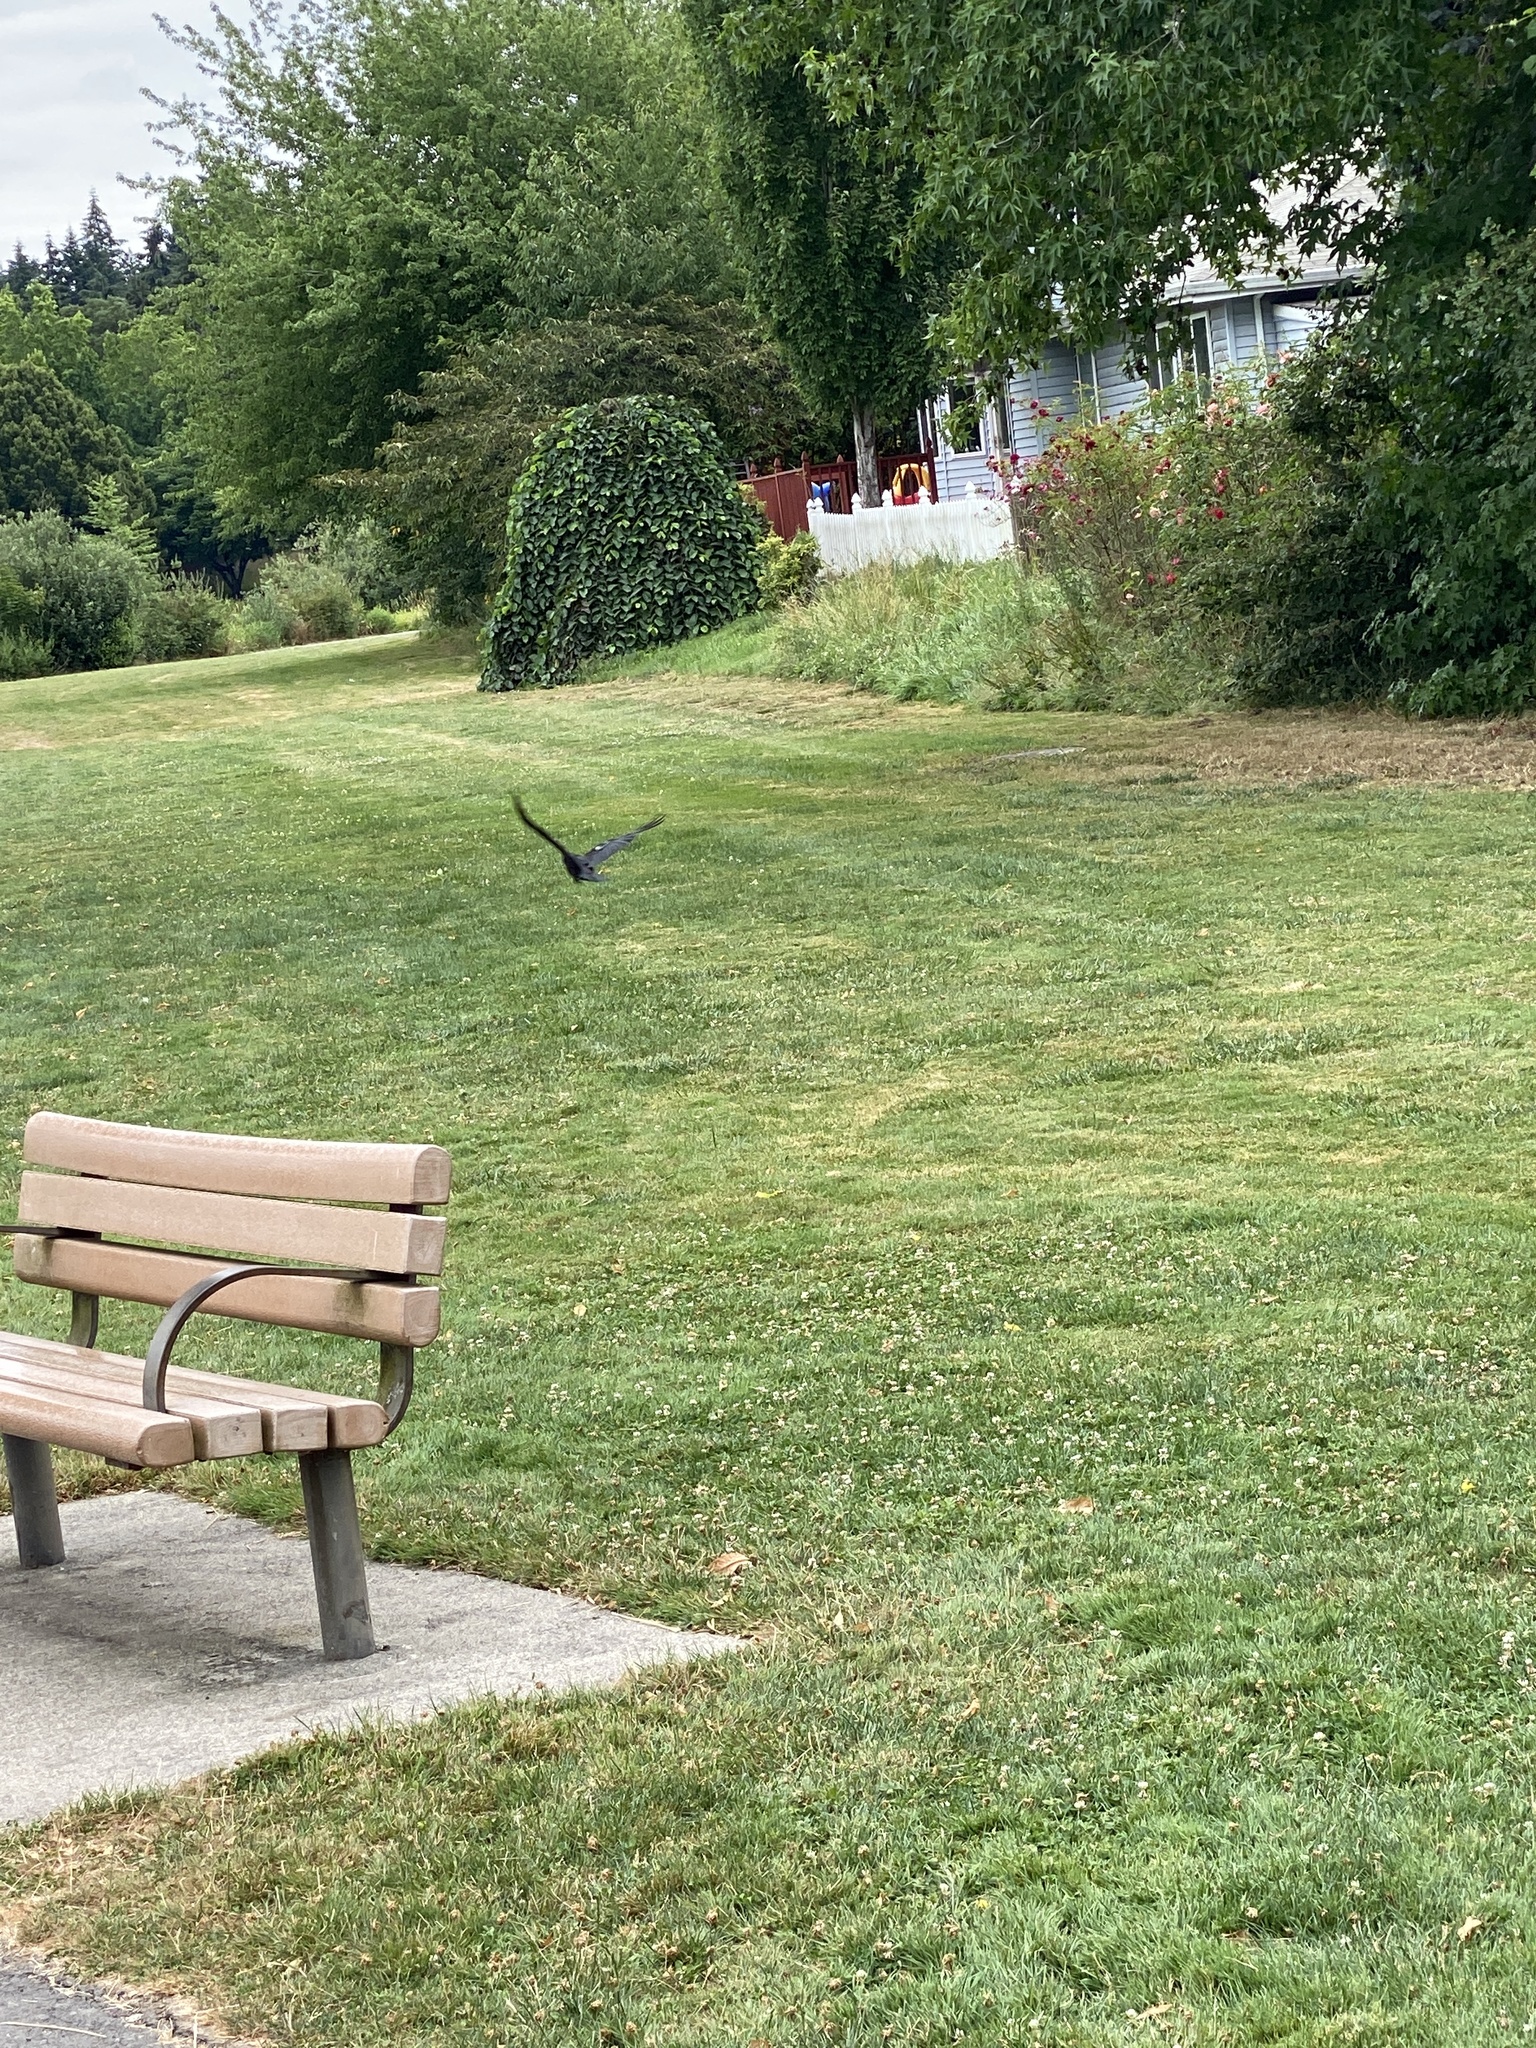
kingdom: Animalia
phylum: Chordata
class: Aves
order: Passeriformes
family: Corvidae
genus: Corvus
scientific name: Corvus brachyrhynchos
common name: American crow
